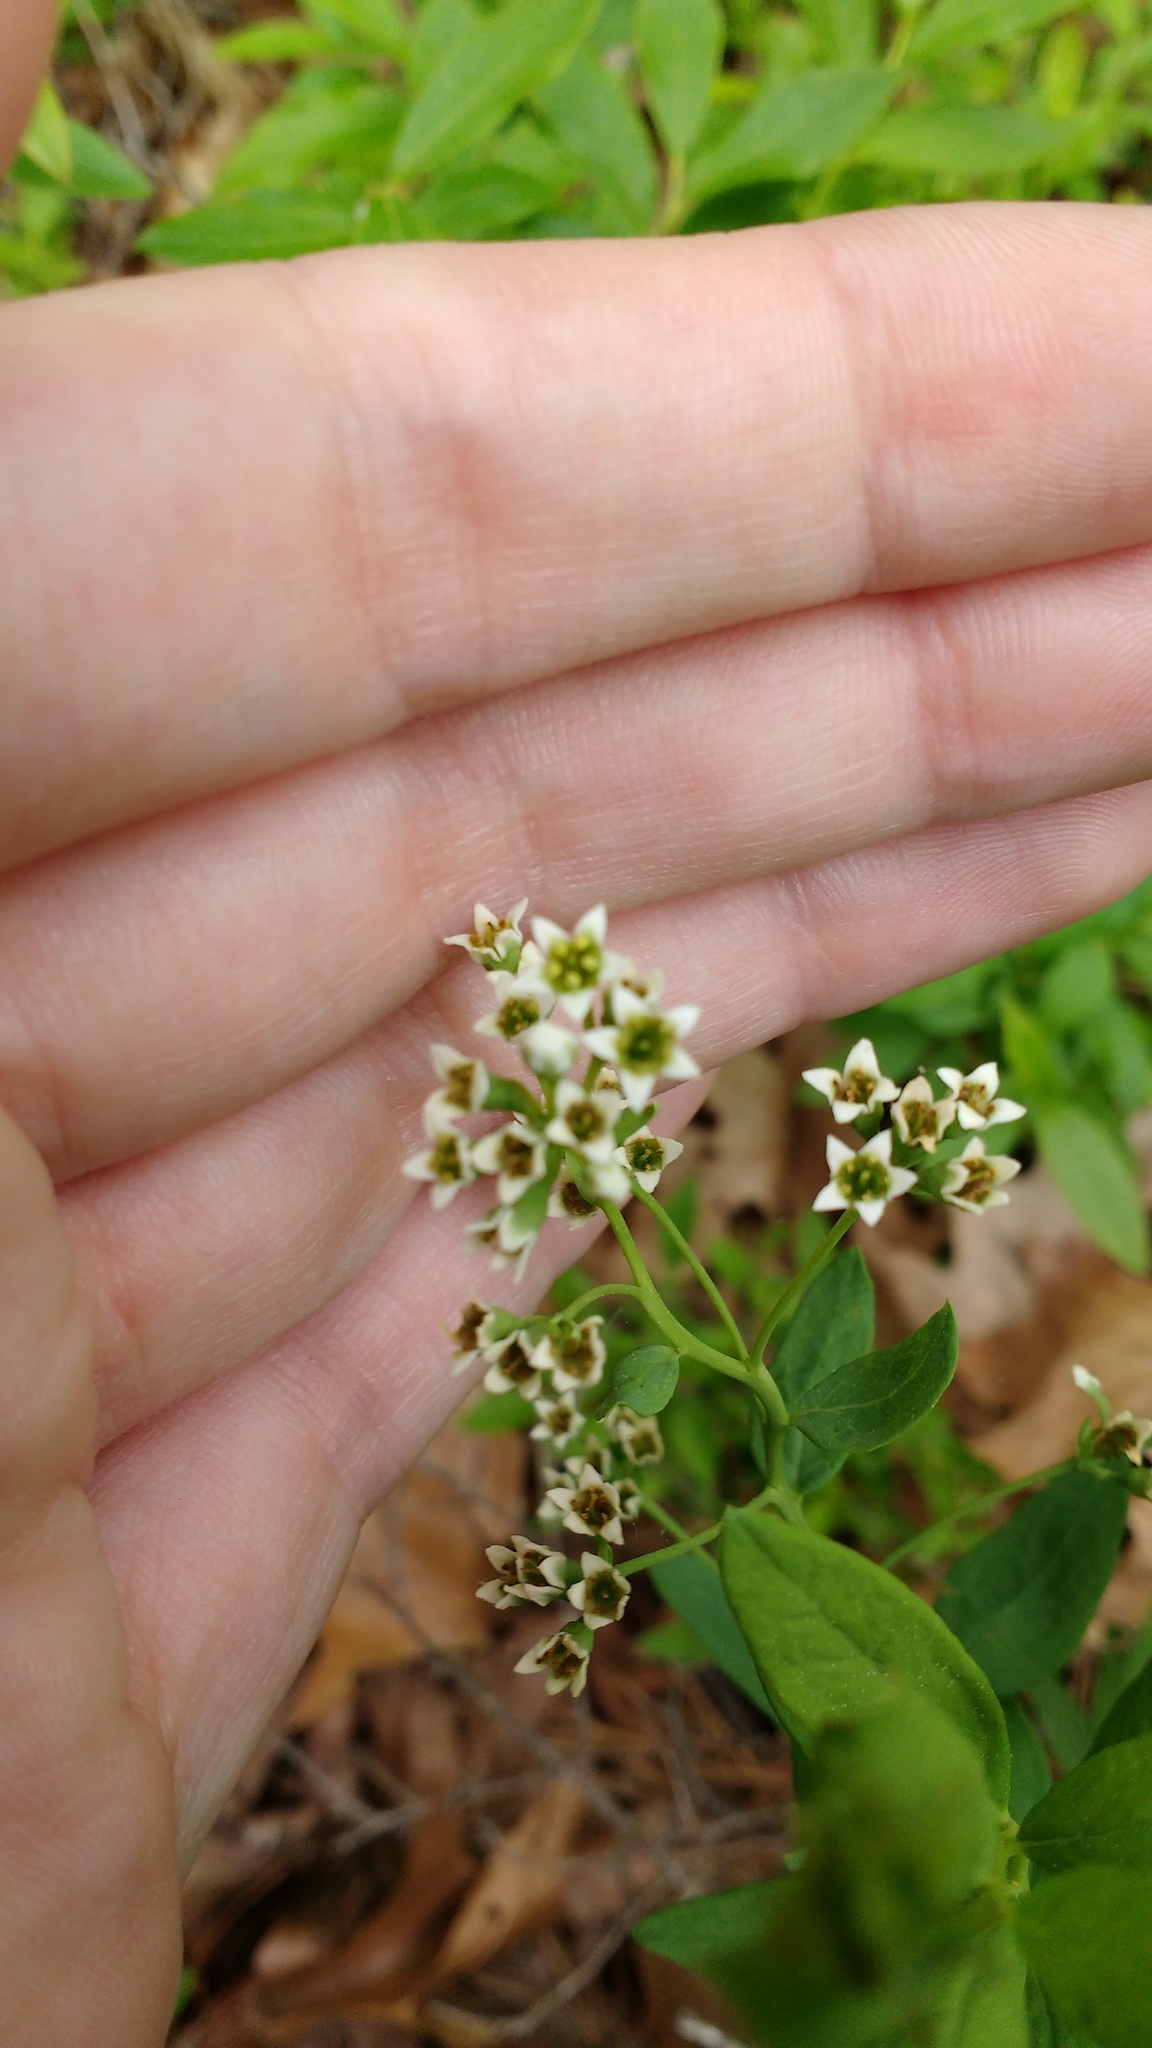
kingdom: Plantae
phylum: Tracheophyta
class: Magnoliopsida
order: Santalales
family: Comandraceae
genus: Comandra
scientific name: Comandra umbellata
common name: Bastard toadflax
